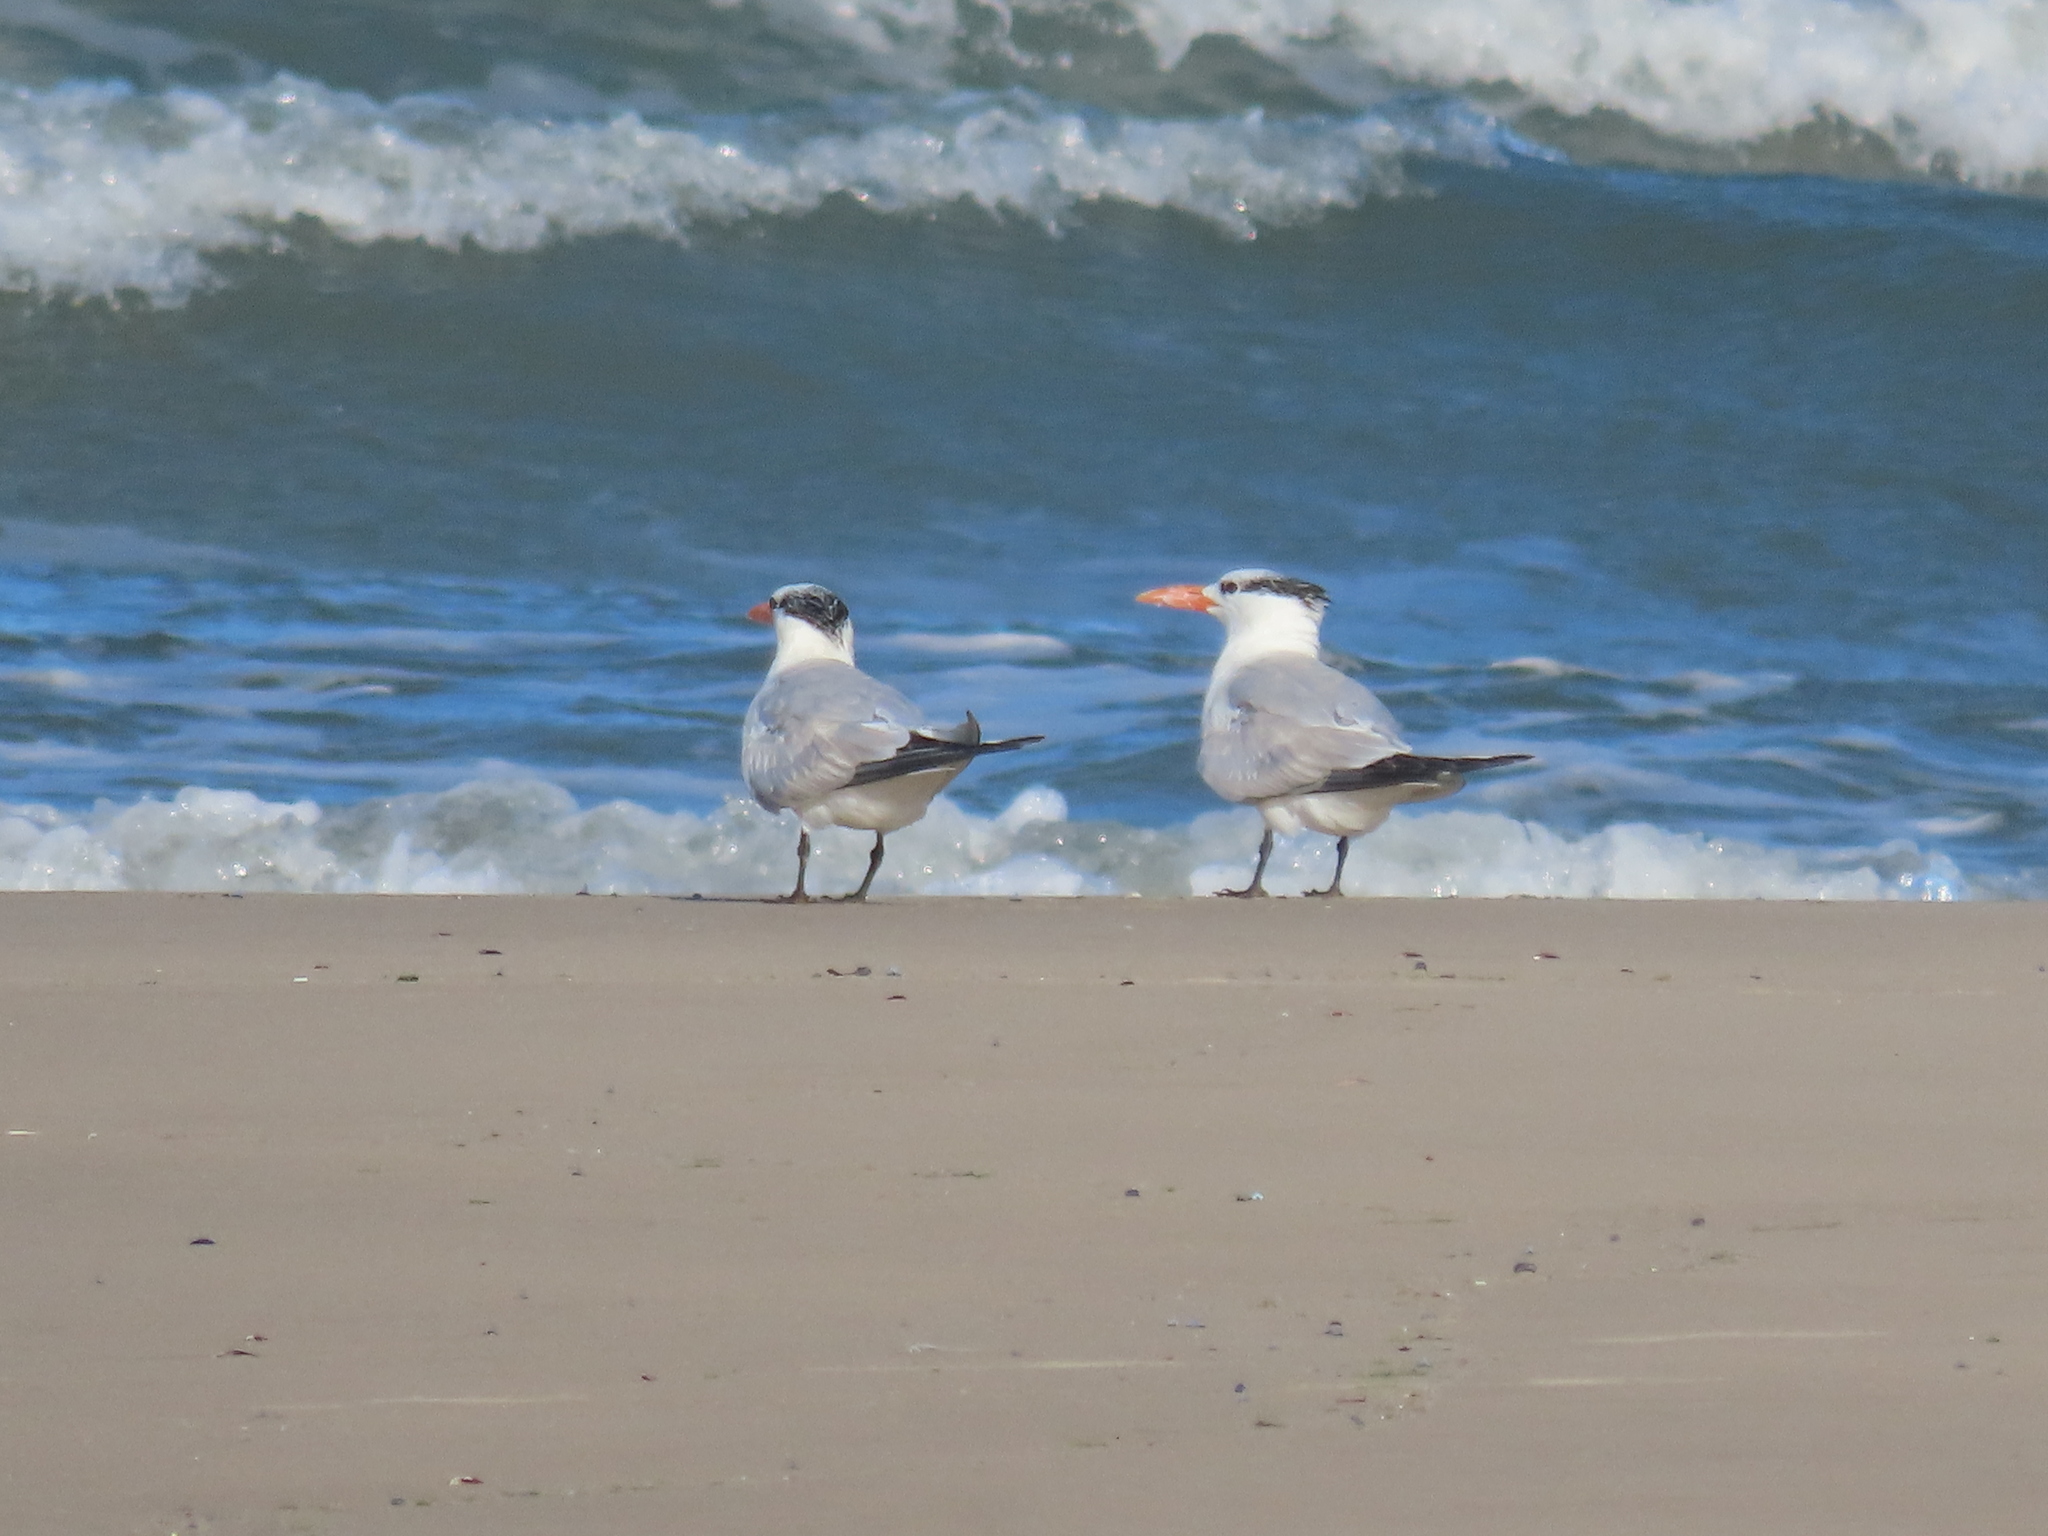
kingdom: Animalia
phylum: Chordata
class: Aves
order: Charadriiformes
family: Laridae
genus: Thalasseus
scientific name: Thalasseus maximus
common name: Royal tern
